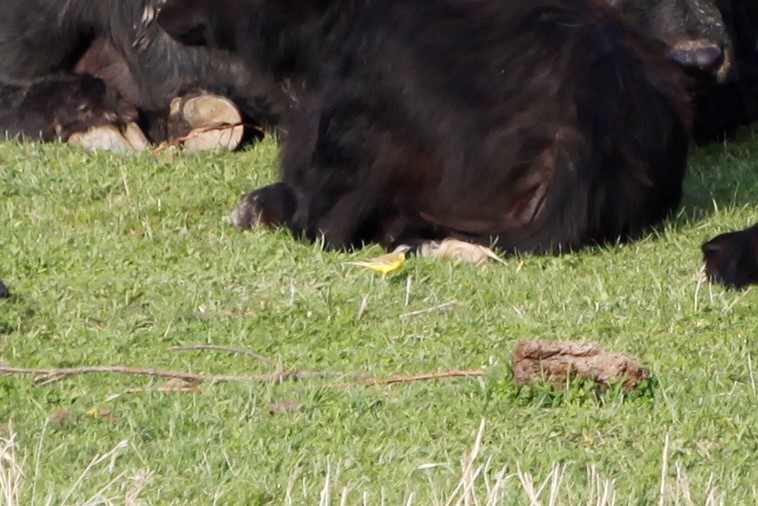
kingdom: Animalia
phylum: Chordata
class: Aves
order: Passeriformes
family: Motacillidae
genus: Motacilla
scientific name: Motacilla flava
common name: Western yellow wagtail
